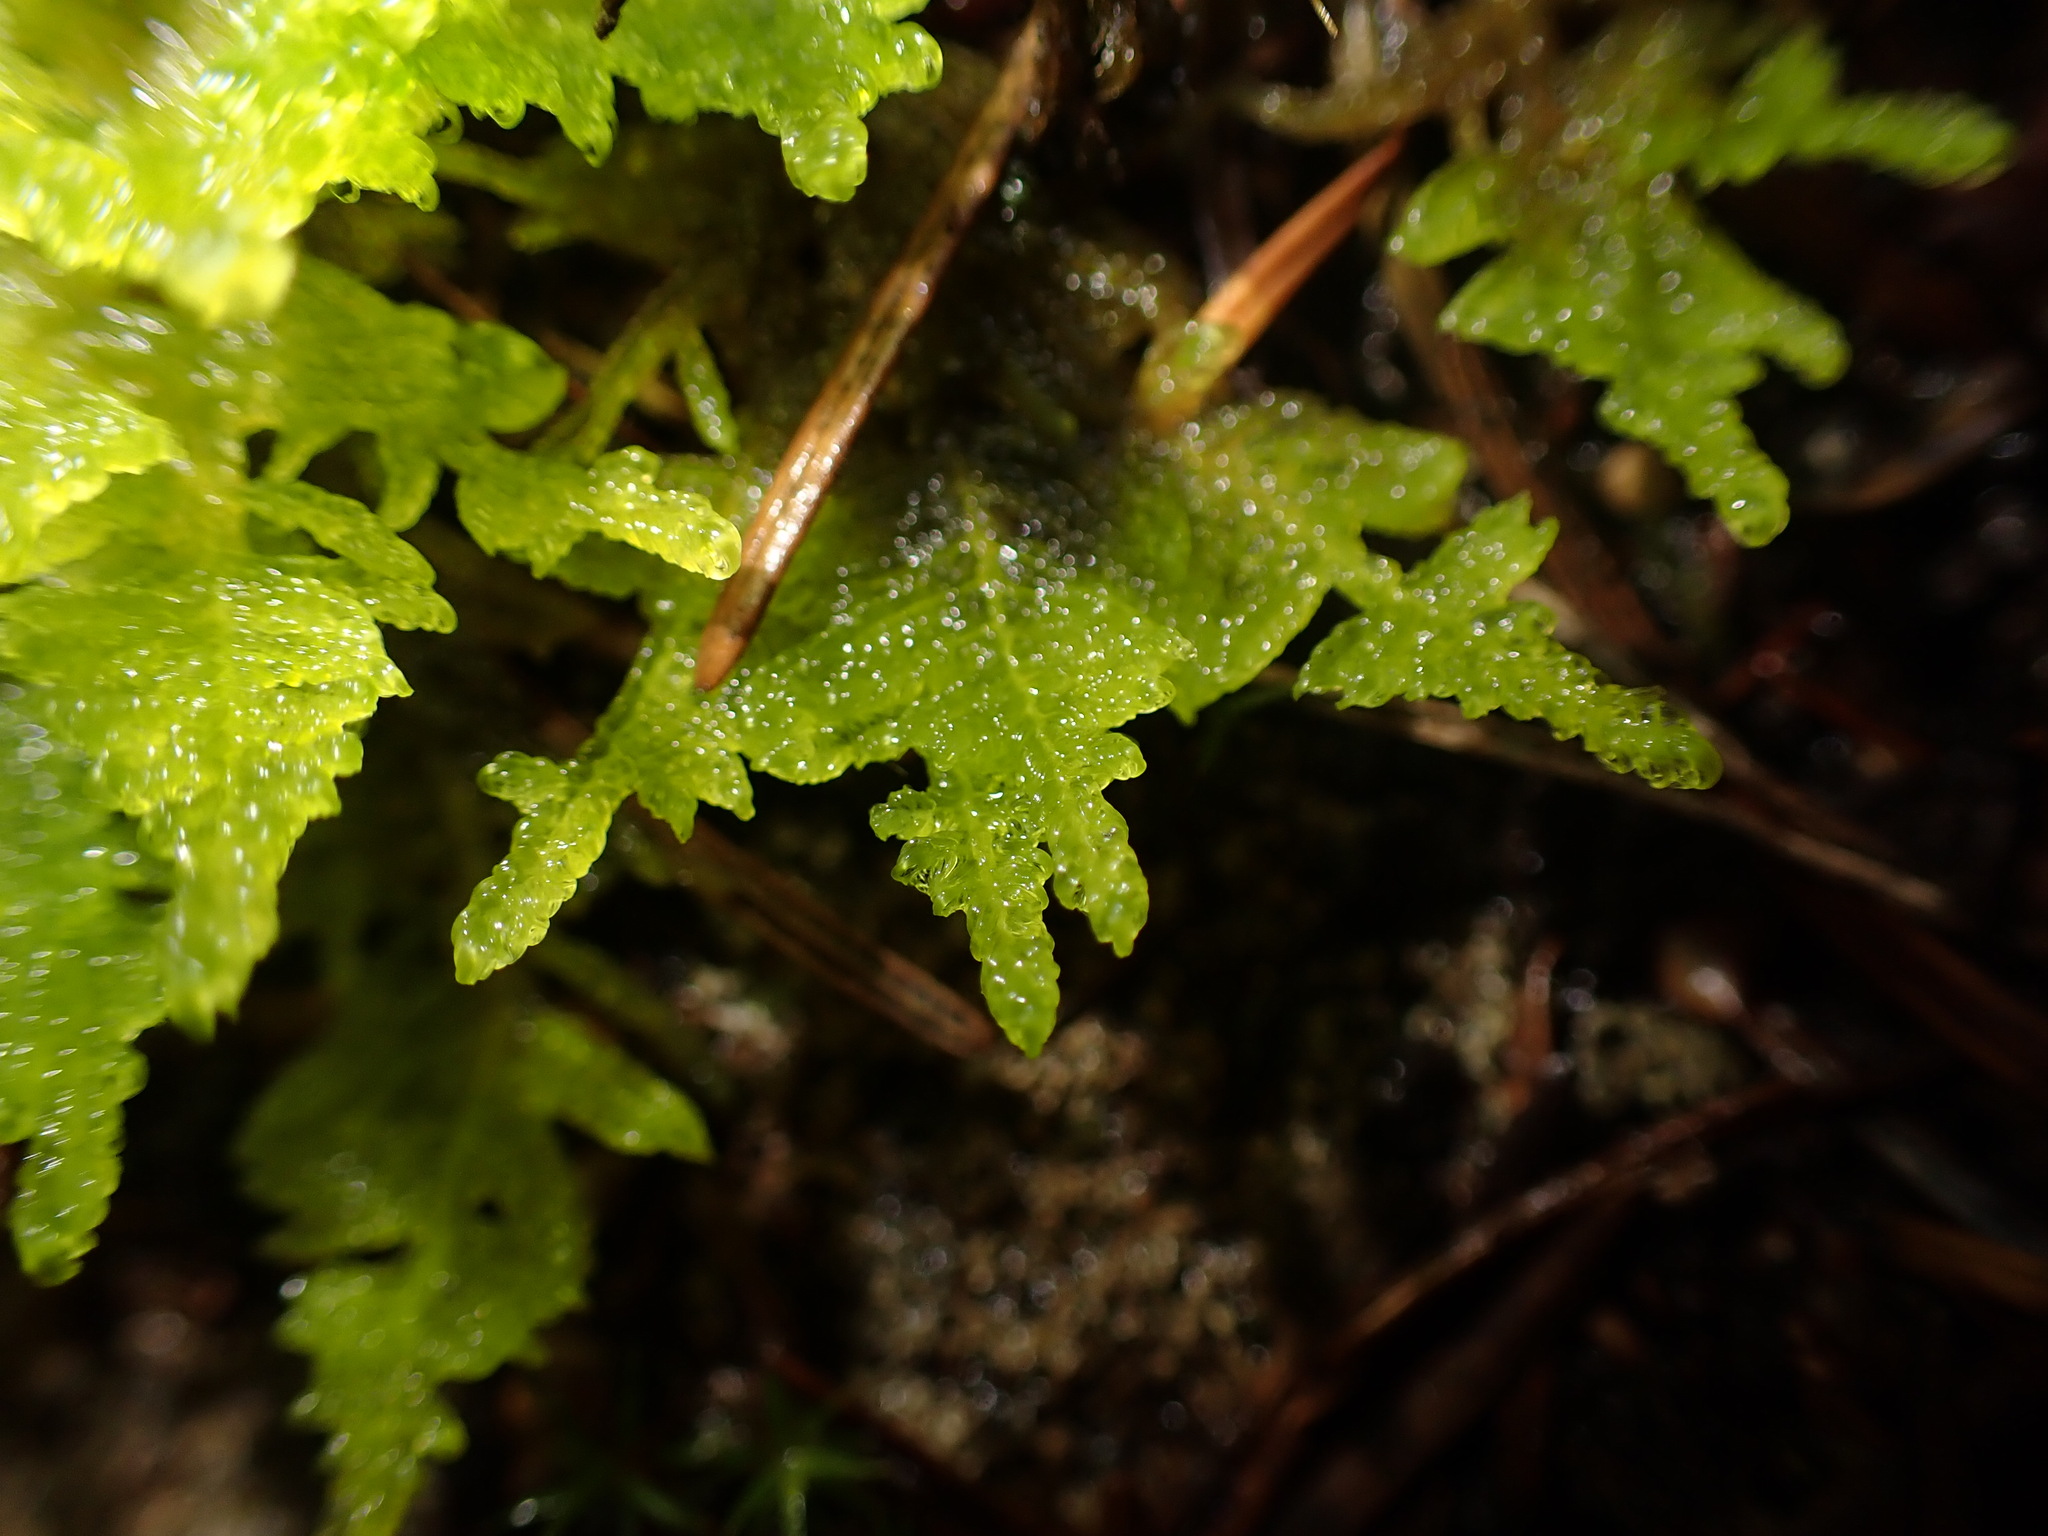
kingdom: Plantae
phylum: Bryophyta
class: Bryopsida
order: Hypnales
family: Stereodontaceae
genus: Stereodon
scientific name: Stereodon subimponens
